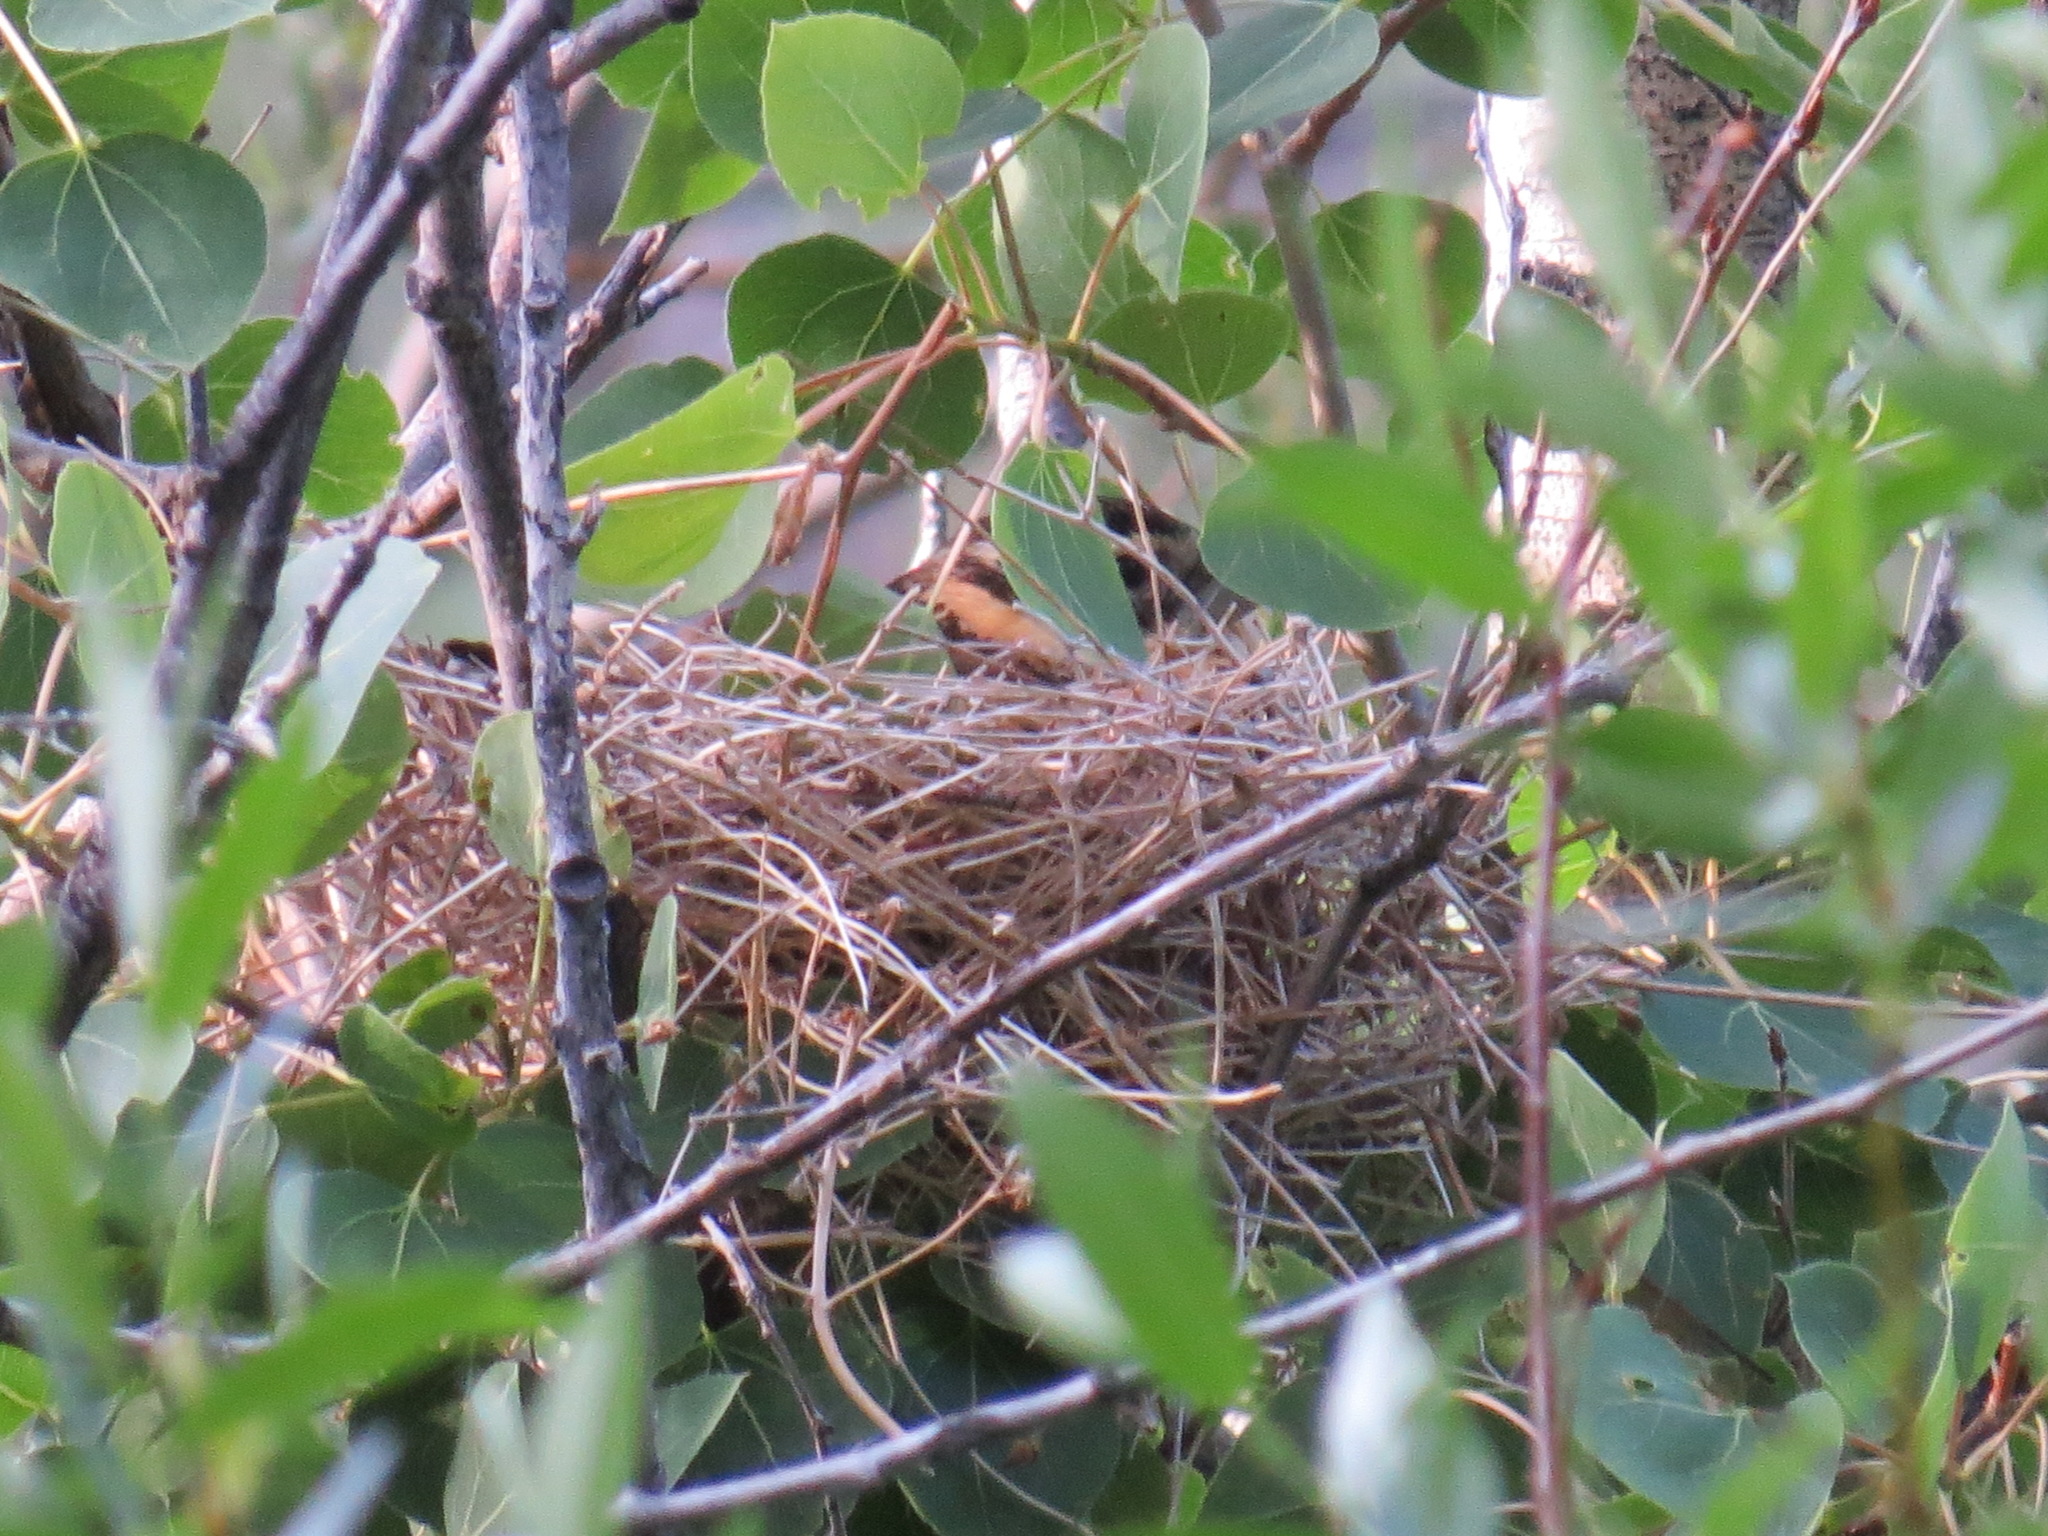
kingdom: Animalia
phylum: Chordata
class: Aves
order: Passeriformes
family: Cardinalidae
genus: Pheucticus
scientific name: Pheucticus melanocephalus
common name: Black-headed grosbeak
